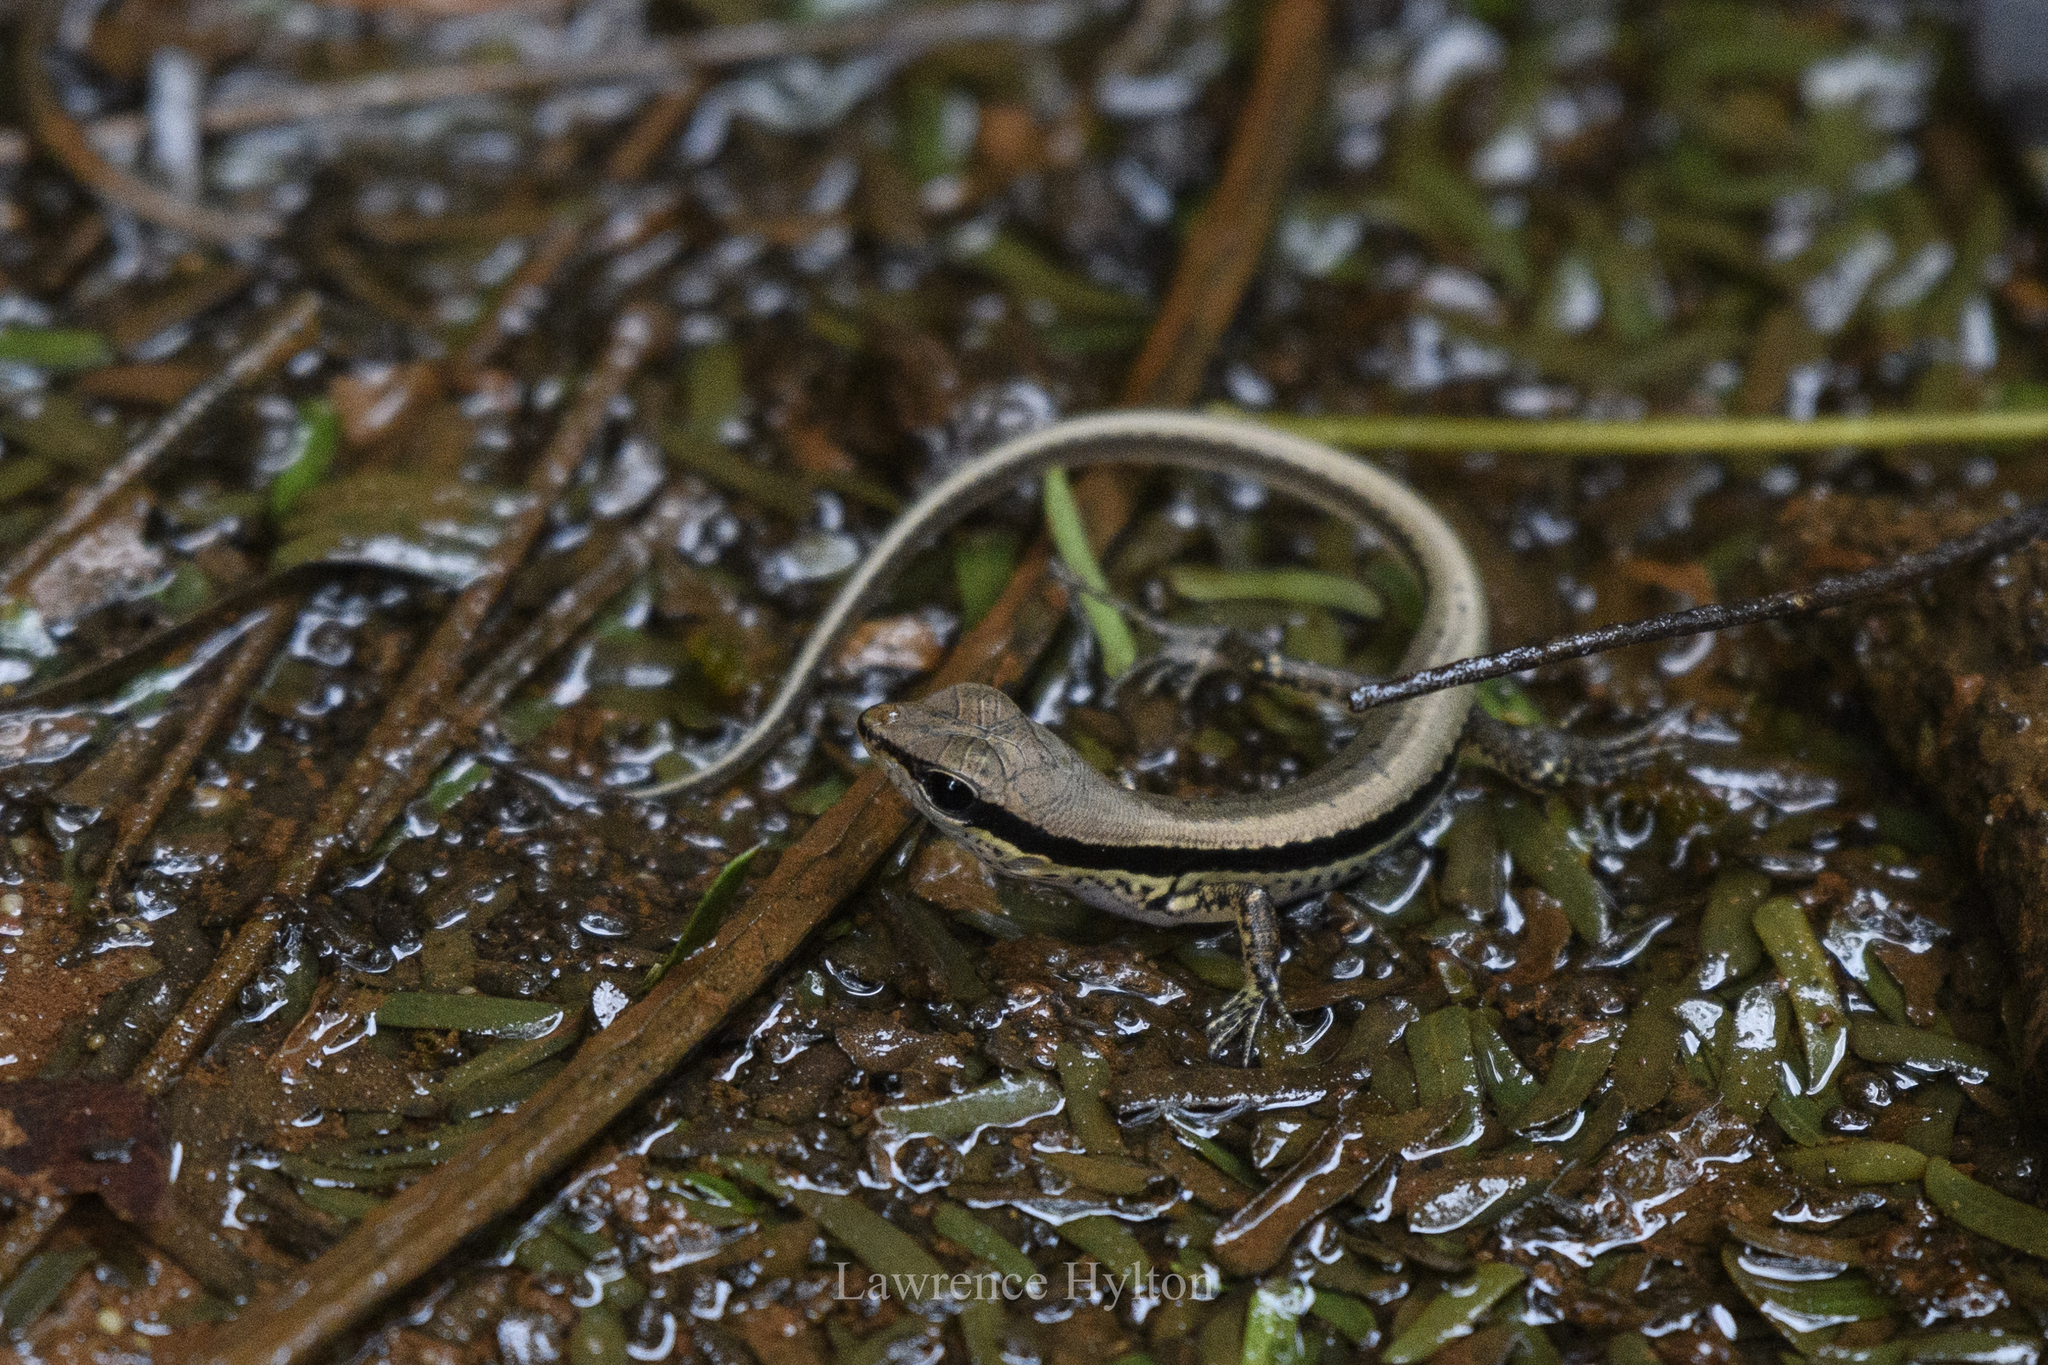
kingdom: Animalia
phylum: Chordata
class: Squamata
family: Scincidae
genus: Sphenomorphus
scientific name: Sphenomorphus maculatus
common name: Maculated forest skink
